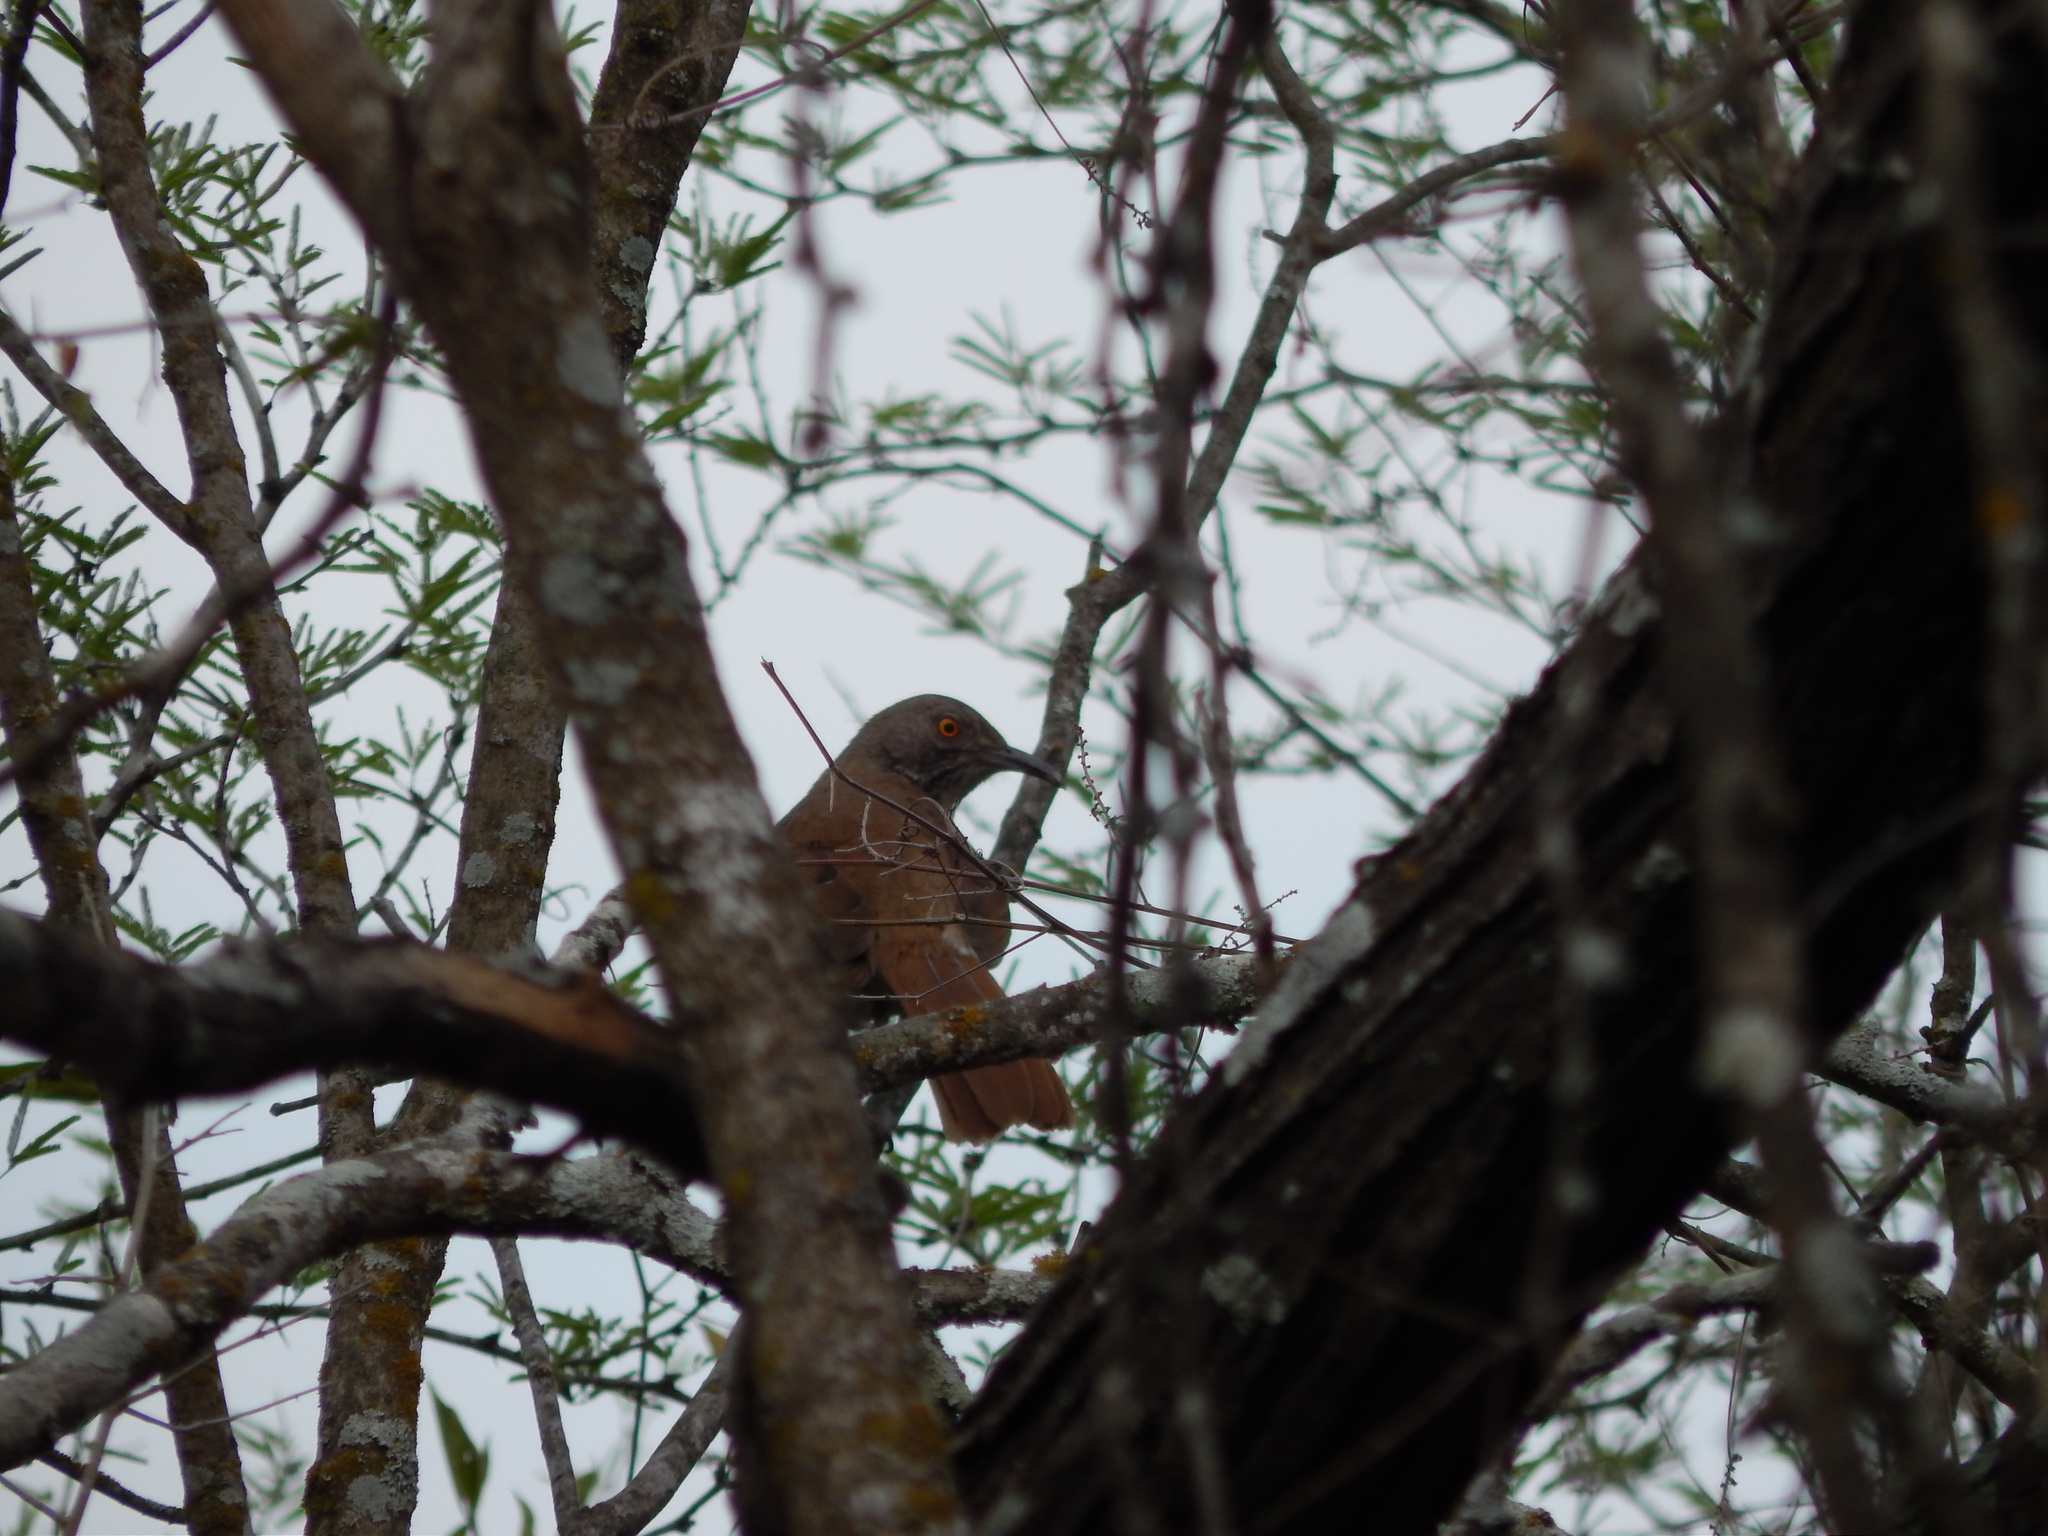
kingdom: Animalia
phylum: Chordata
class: Aves
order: Passeriformes
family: Mimidae
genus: Toxostoma
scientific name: Toxostoma longirostre
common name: Long-billed thrasher
